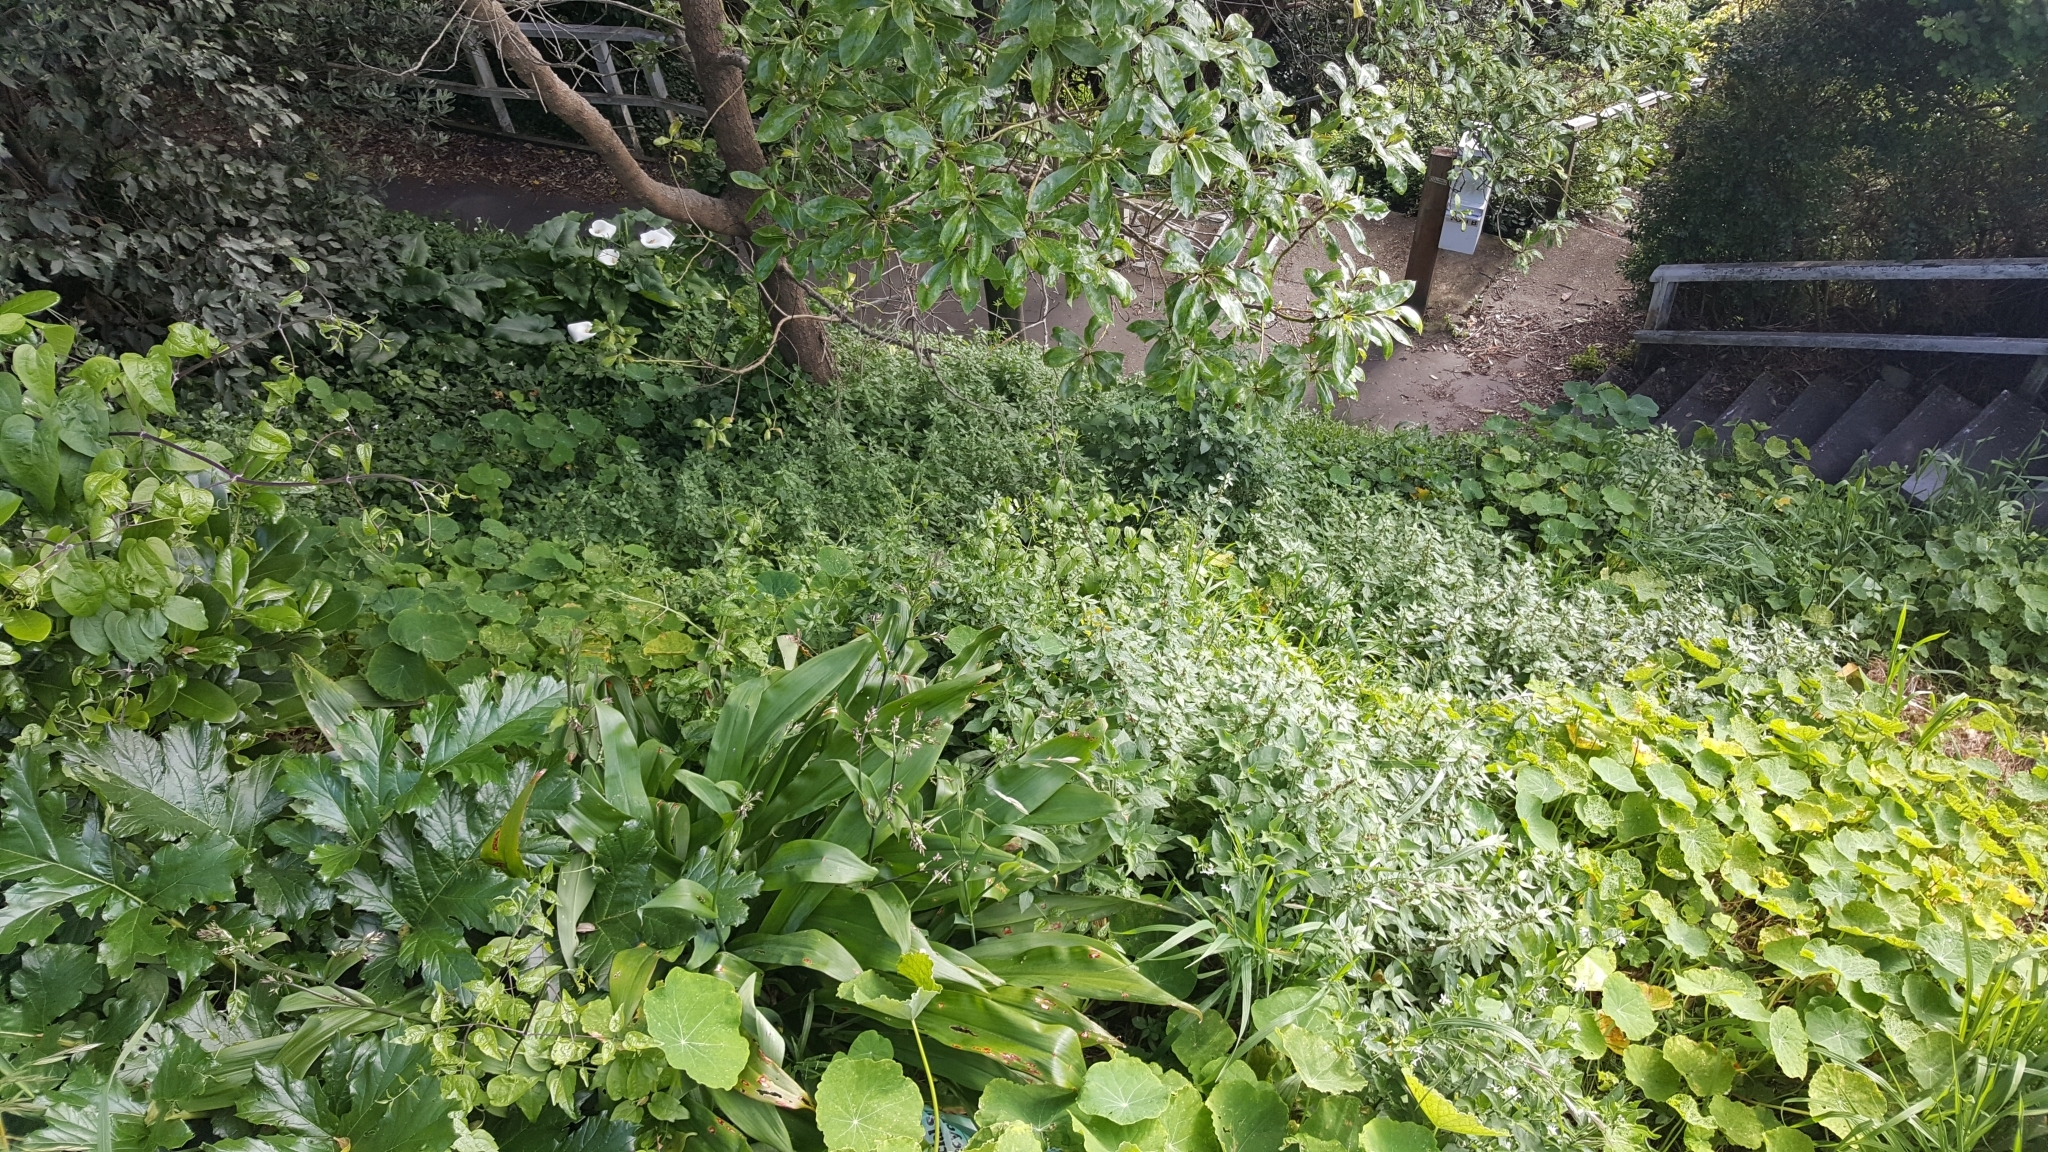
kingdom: Plantae
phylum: Tracheophyta
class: Magnoliopsida
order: Ranunculales
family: Ranunculaceae
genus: Clematis
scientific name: Clematis vitalba
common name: Evergreen clematis
